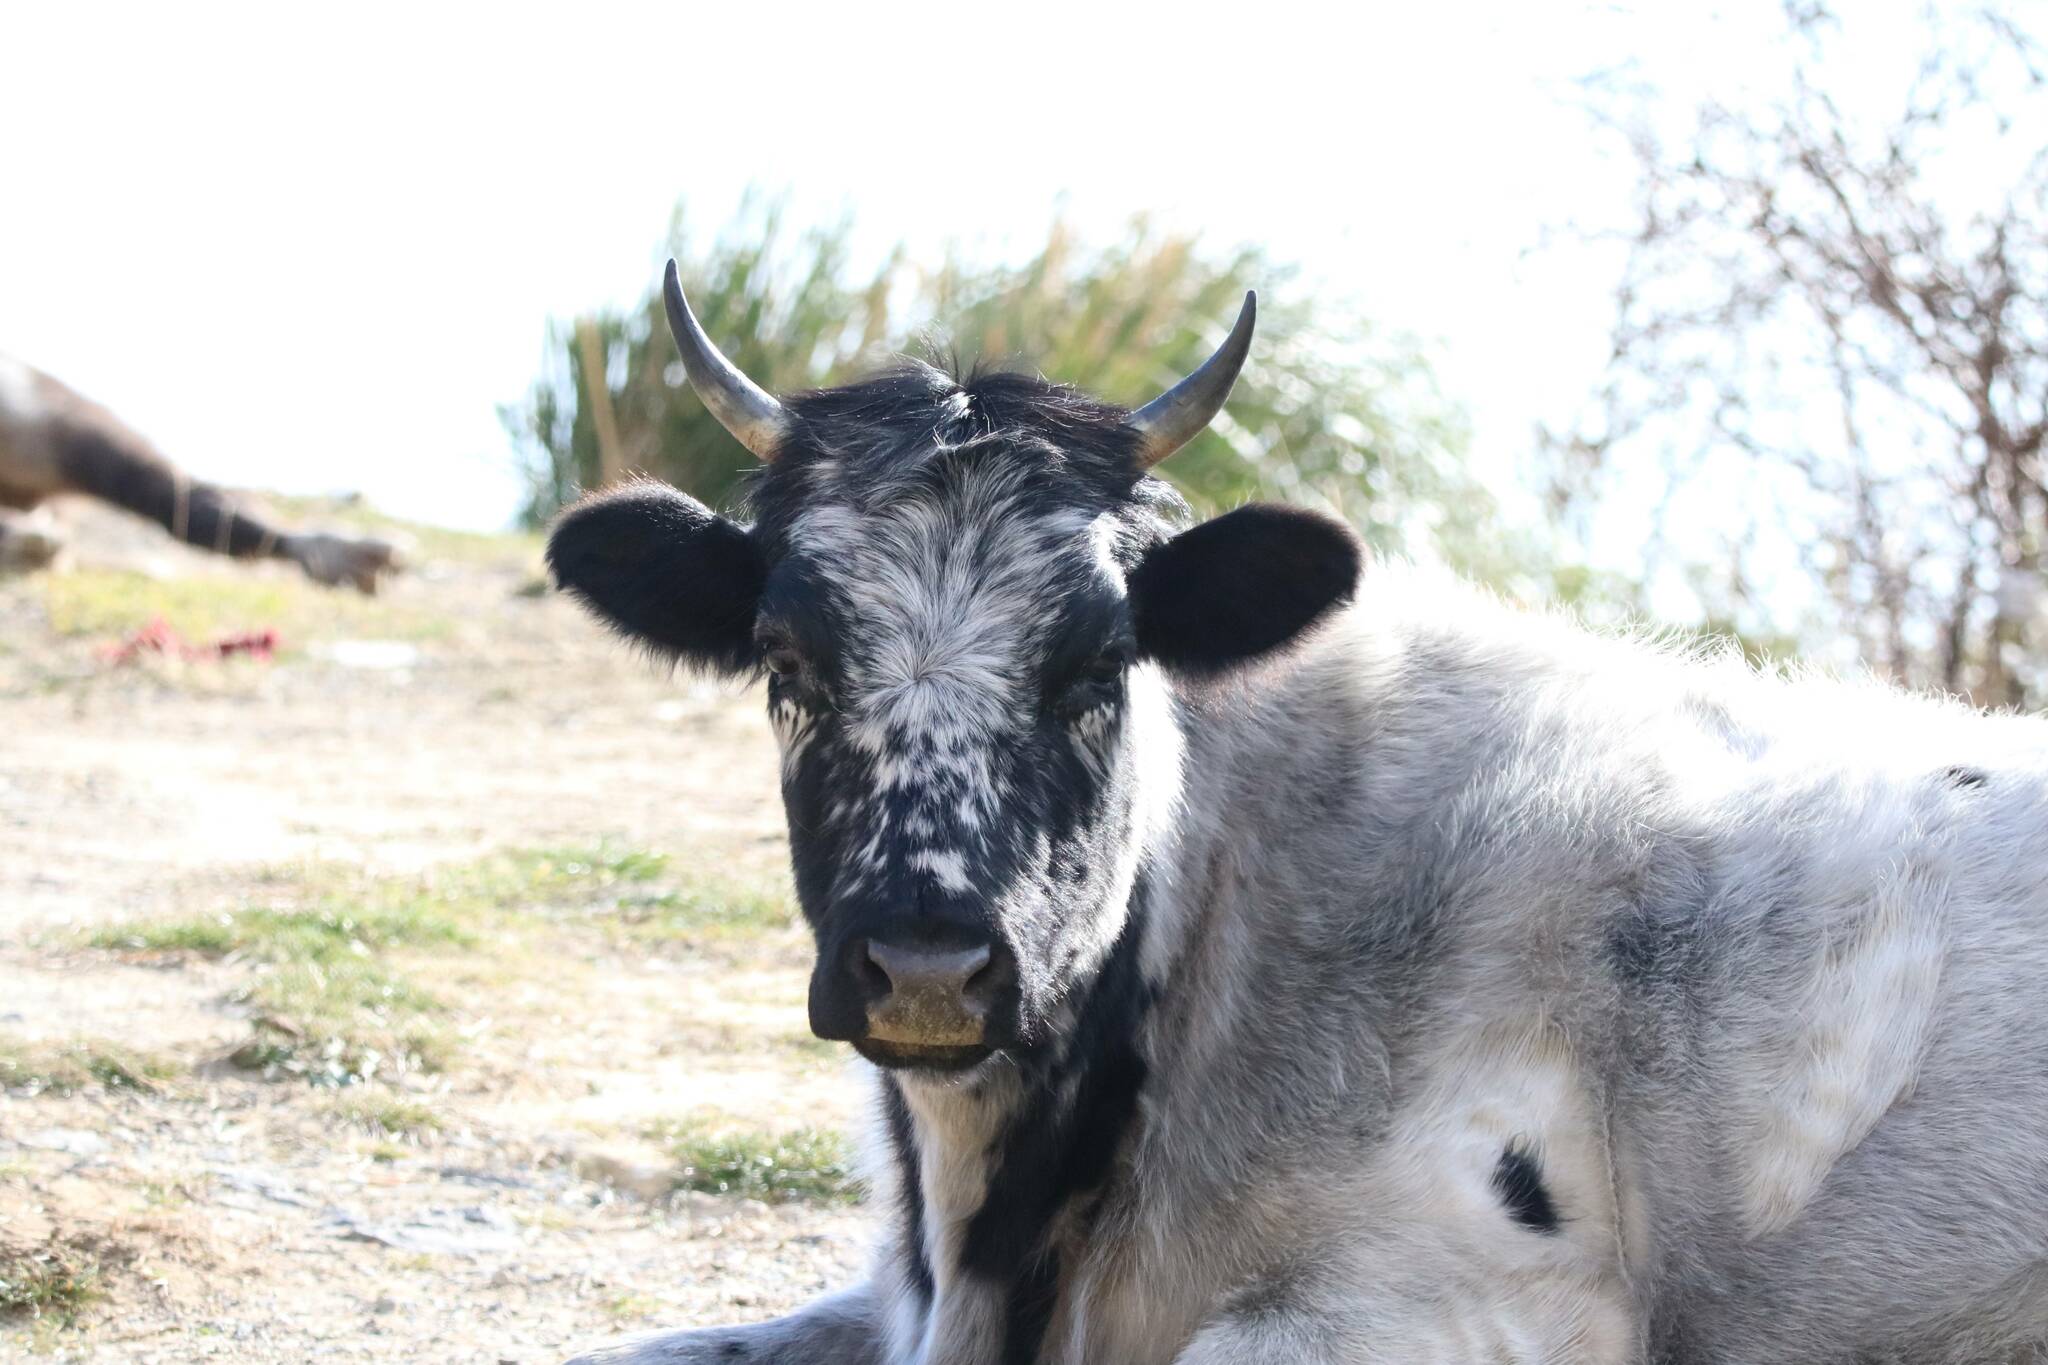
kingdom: Animalia
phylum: Chordata
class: Mammalia
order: Artiodactyla
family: Bovidae
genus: Bos
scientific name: Bos taurus
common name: Domesticated cattle
